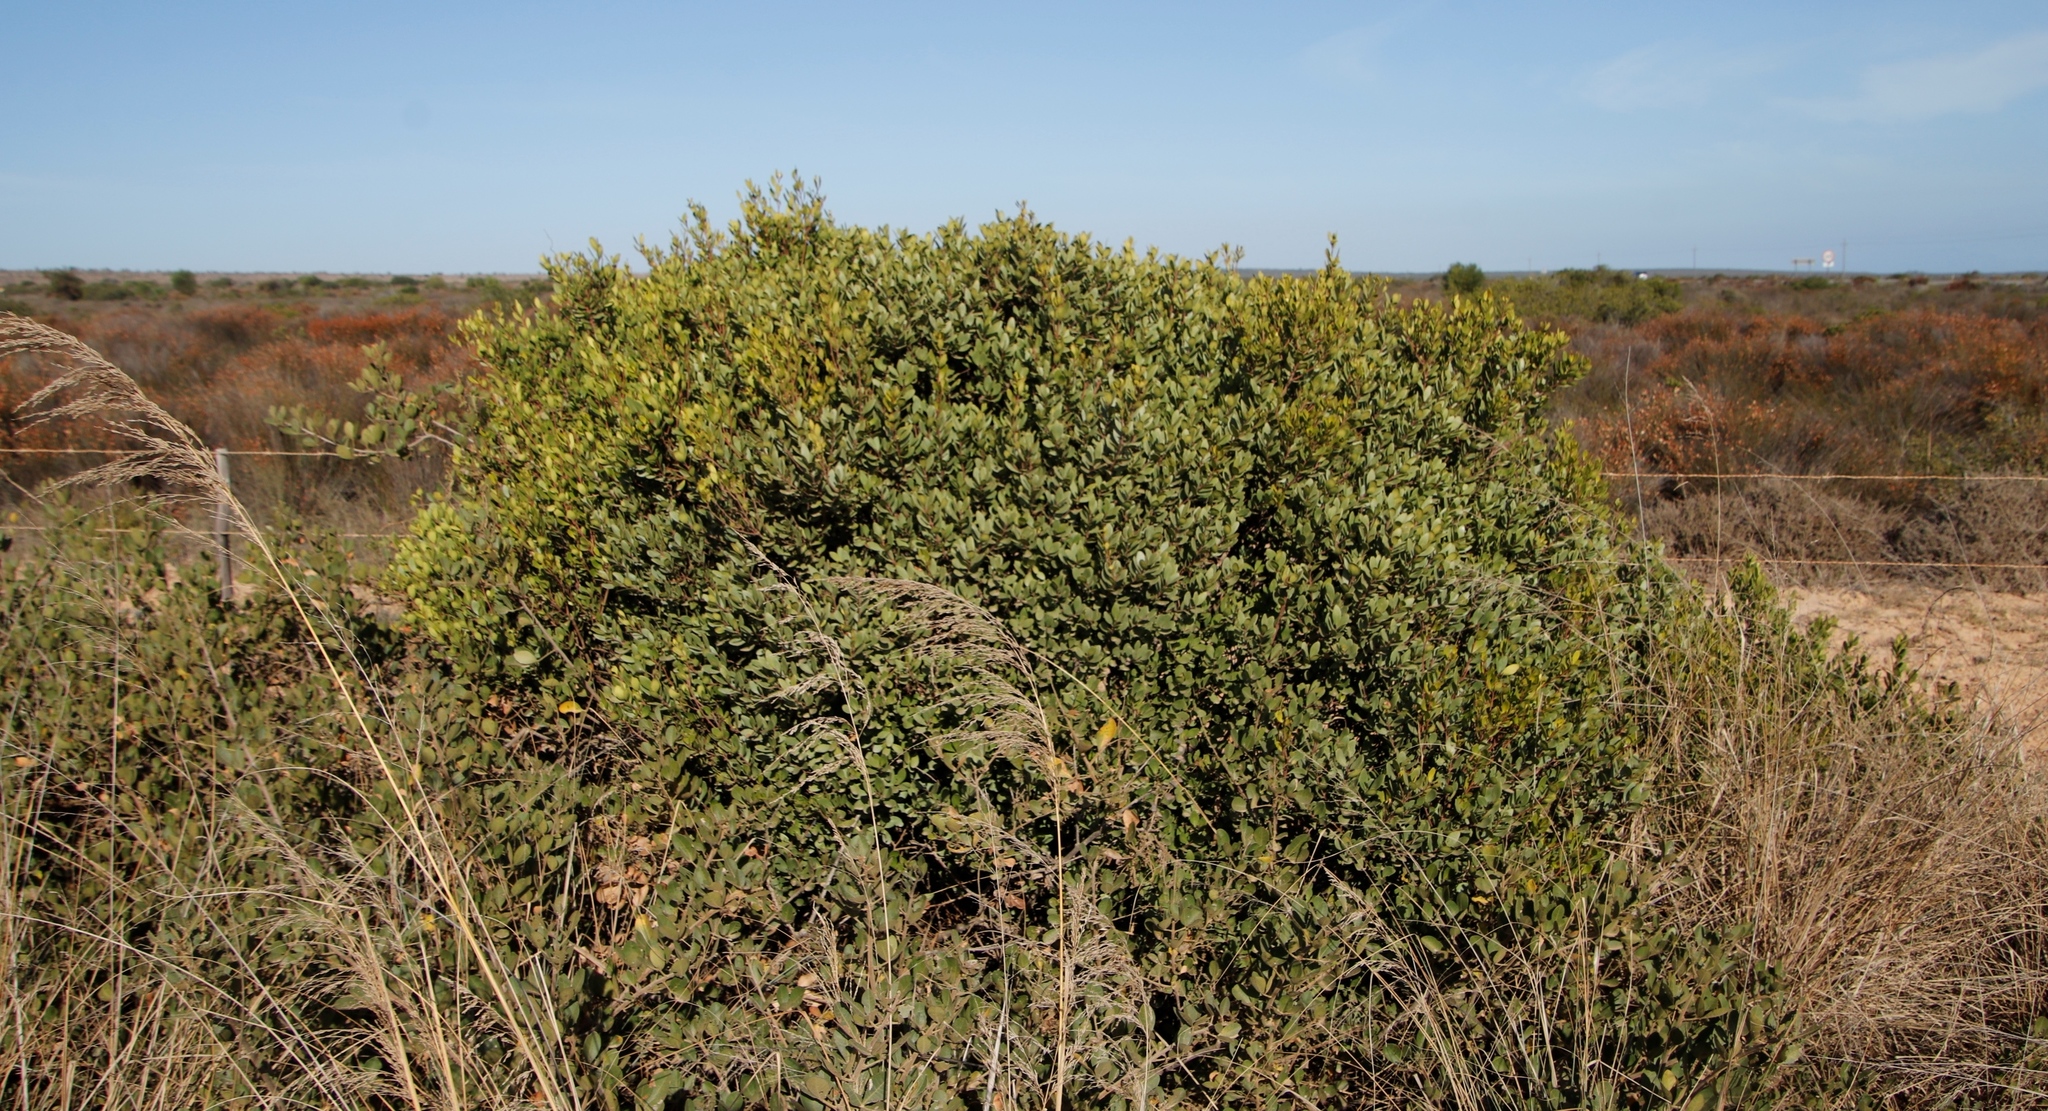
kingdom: Plantae
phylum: Tracheophyta
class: Magnoliopsida
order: Ericales
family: Ebenaceae
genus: Euclea
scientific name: Euclea racemosa
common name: Dune guarri
